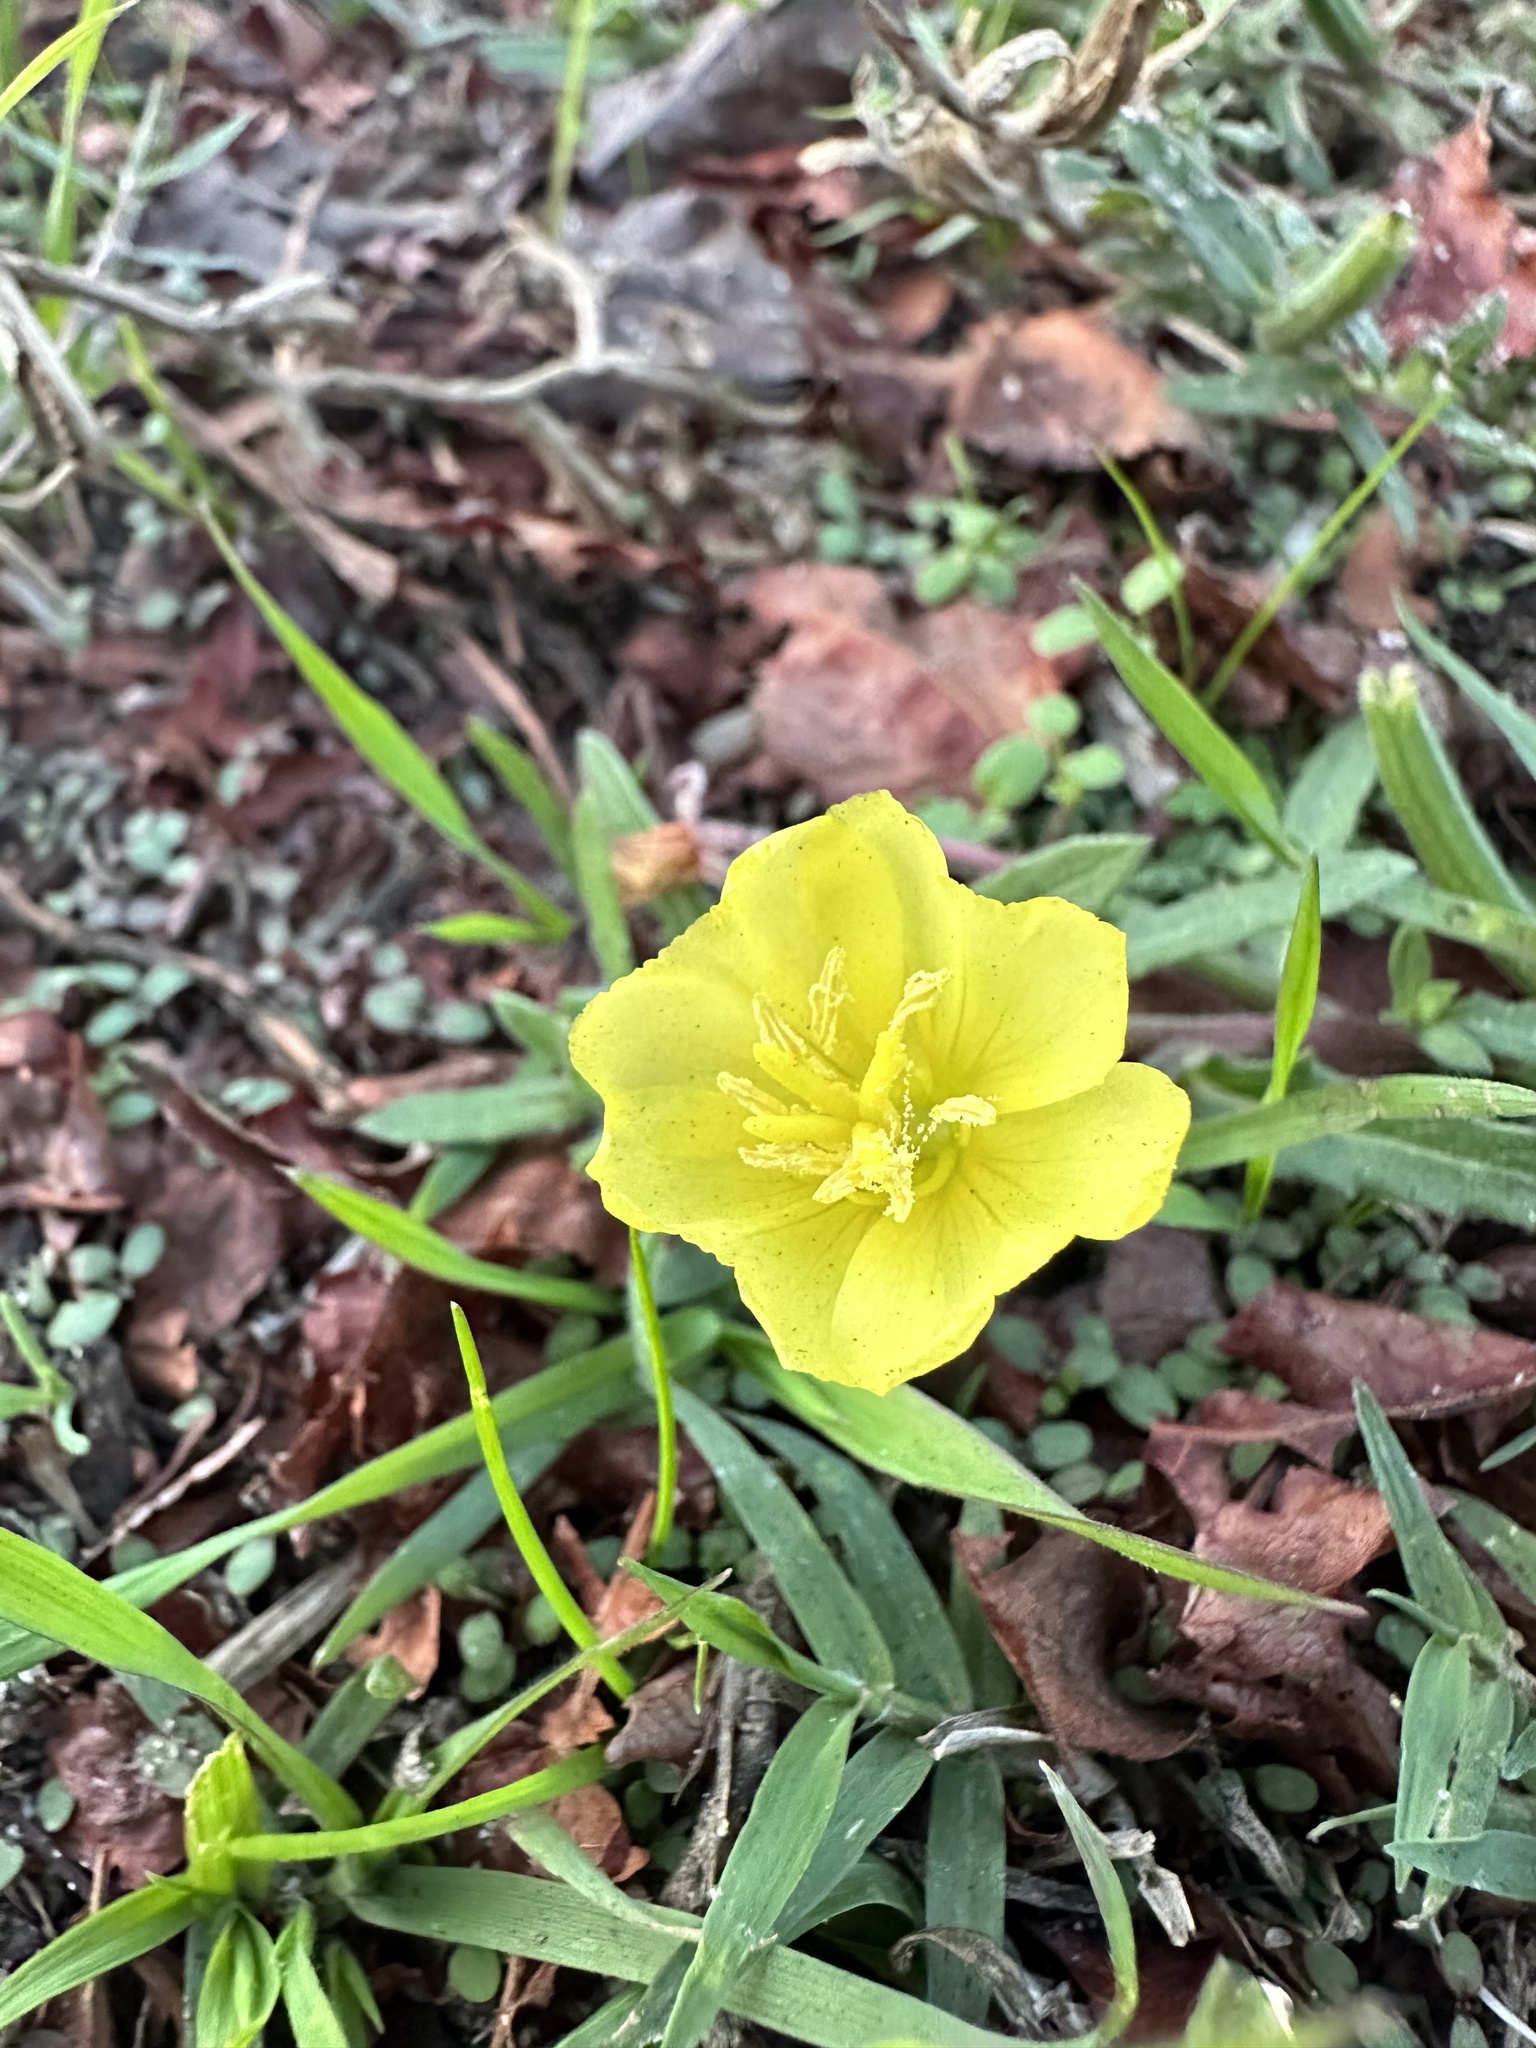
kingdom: Plantae
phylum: Tracheophyta
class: Magnoliopsida
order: Myrtales
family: Onagraceae
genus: Oenothera
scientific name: Oenothera laciniata
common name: Cut-leaved evening-primrose
